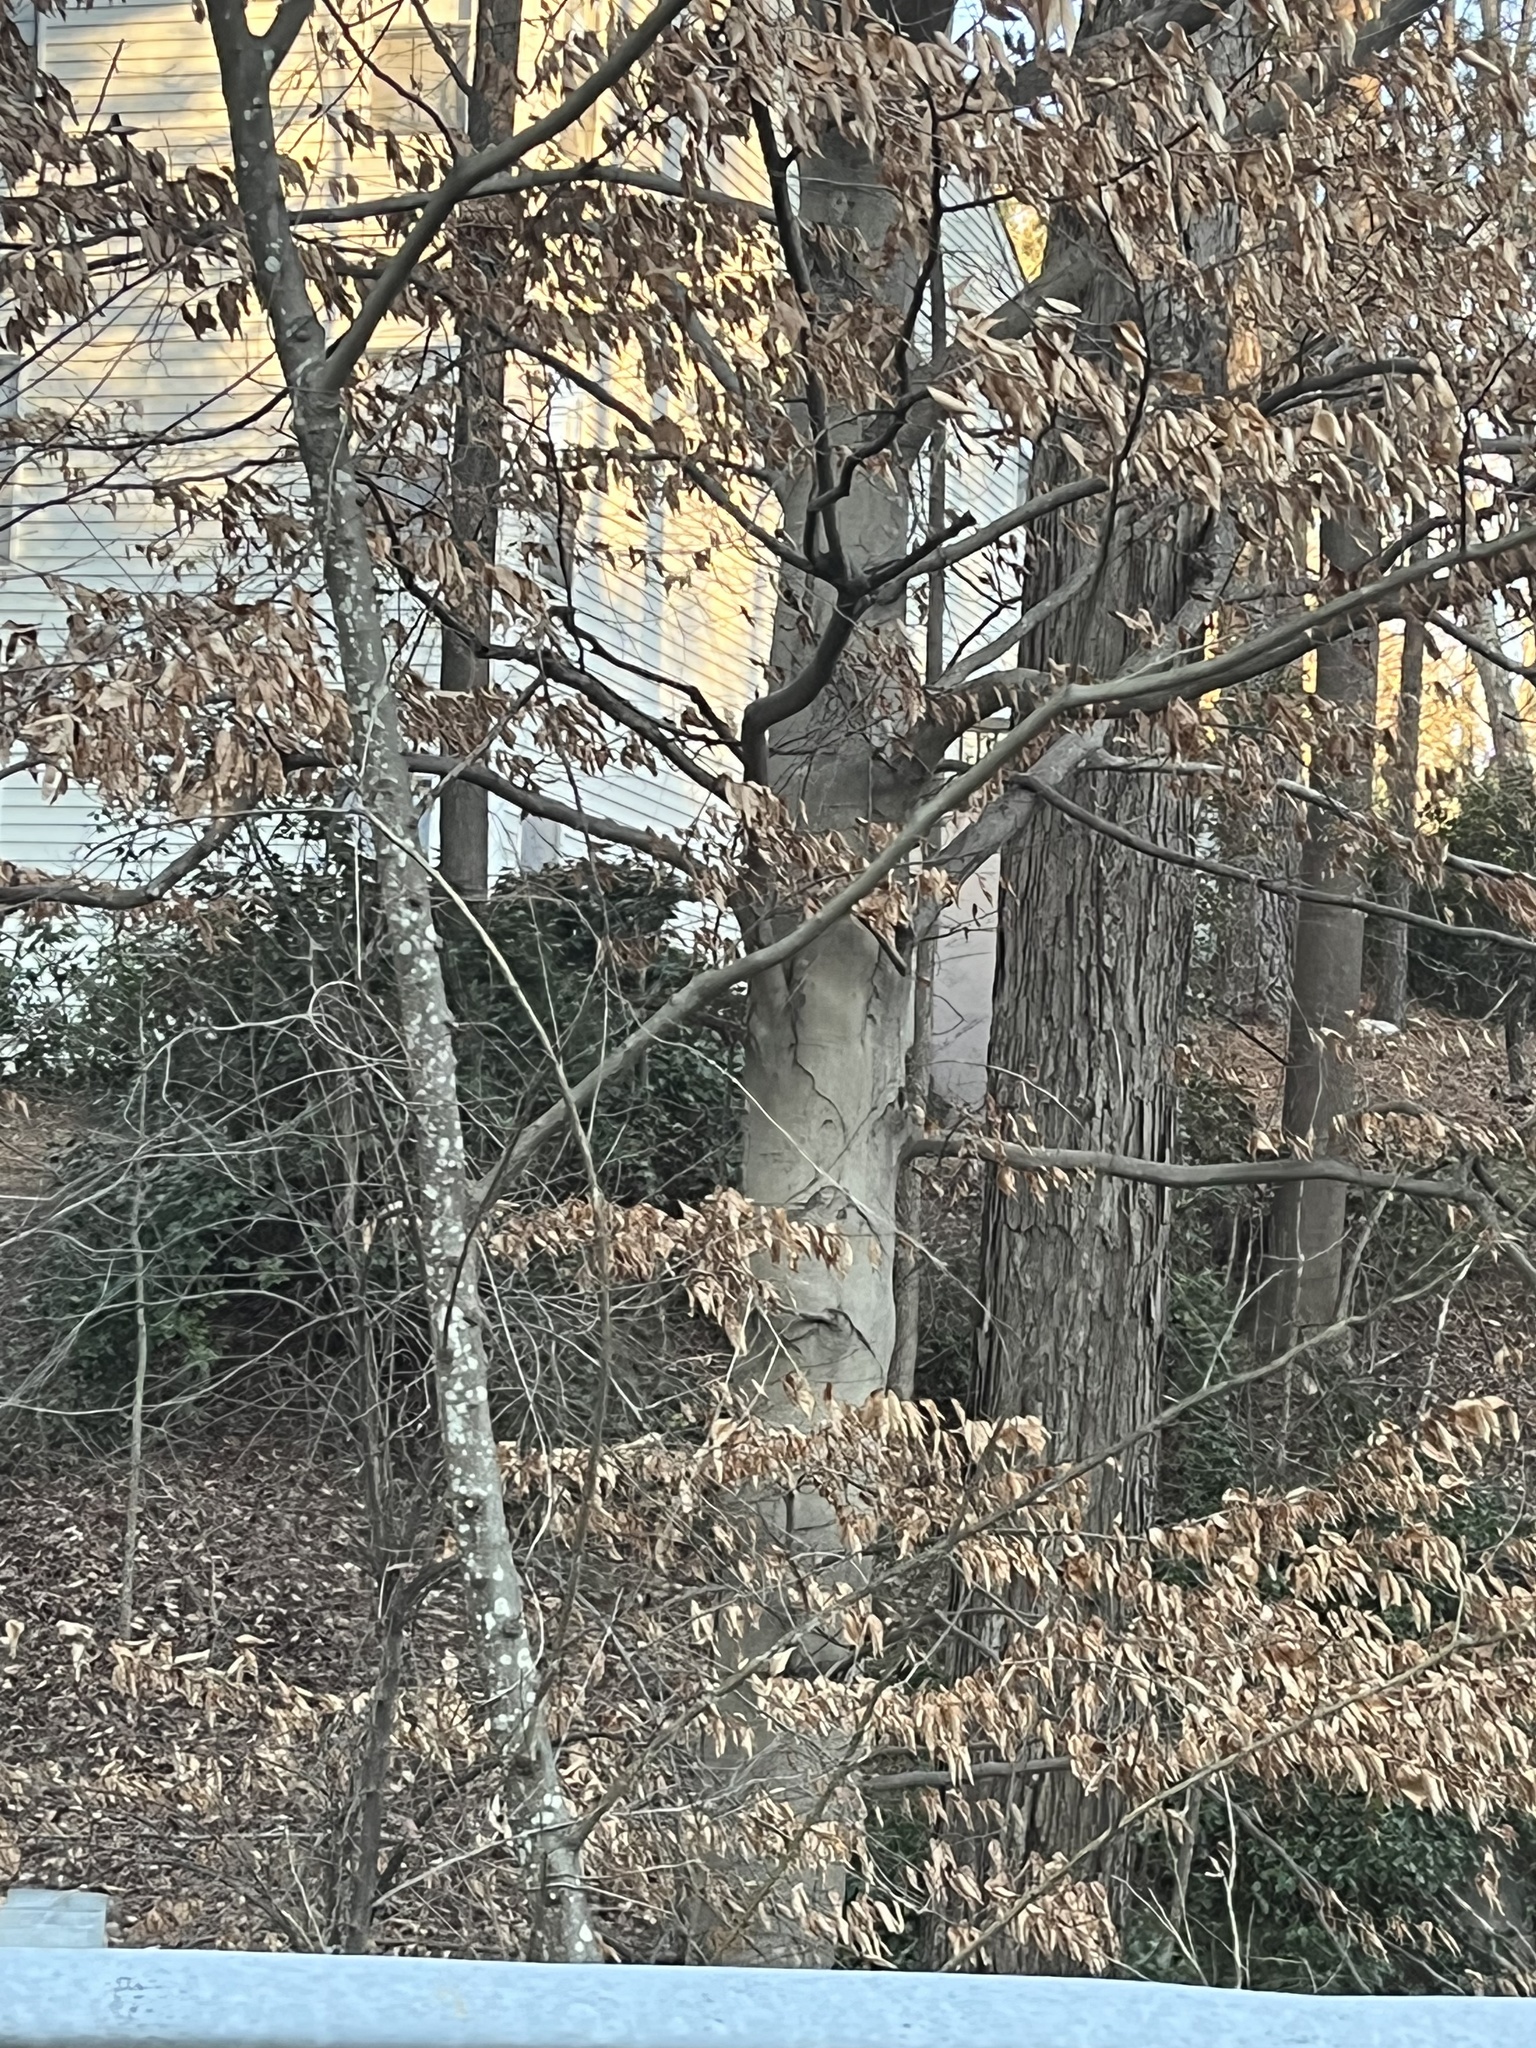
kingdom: Plantae
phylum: Tracheophyta
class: Magnoliopsida
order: Fagales
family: Fagaceae
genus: Fagus
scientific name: Fagus grandifolia
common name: American beech
